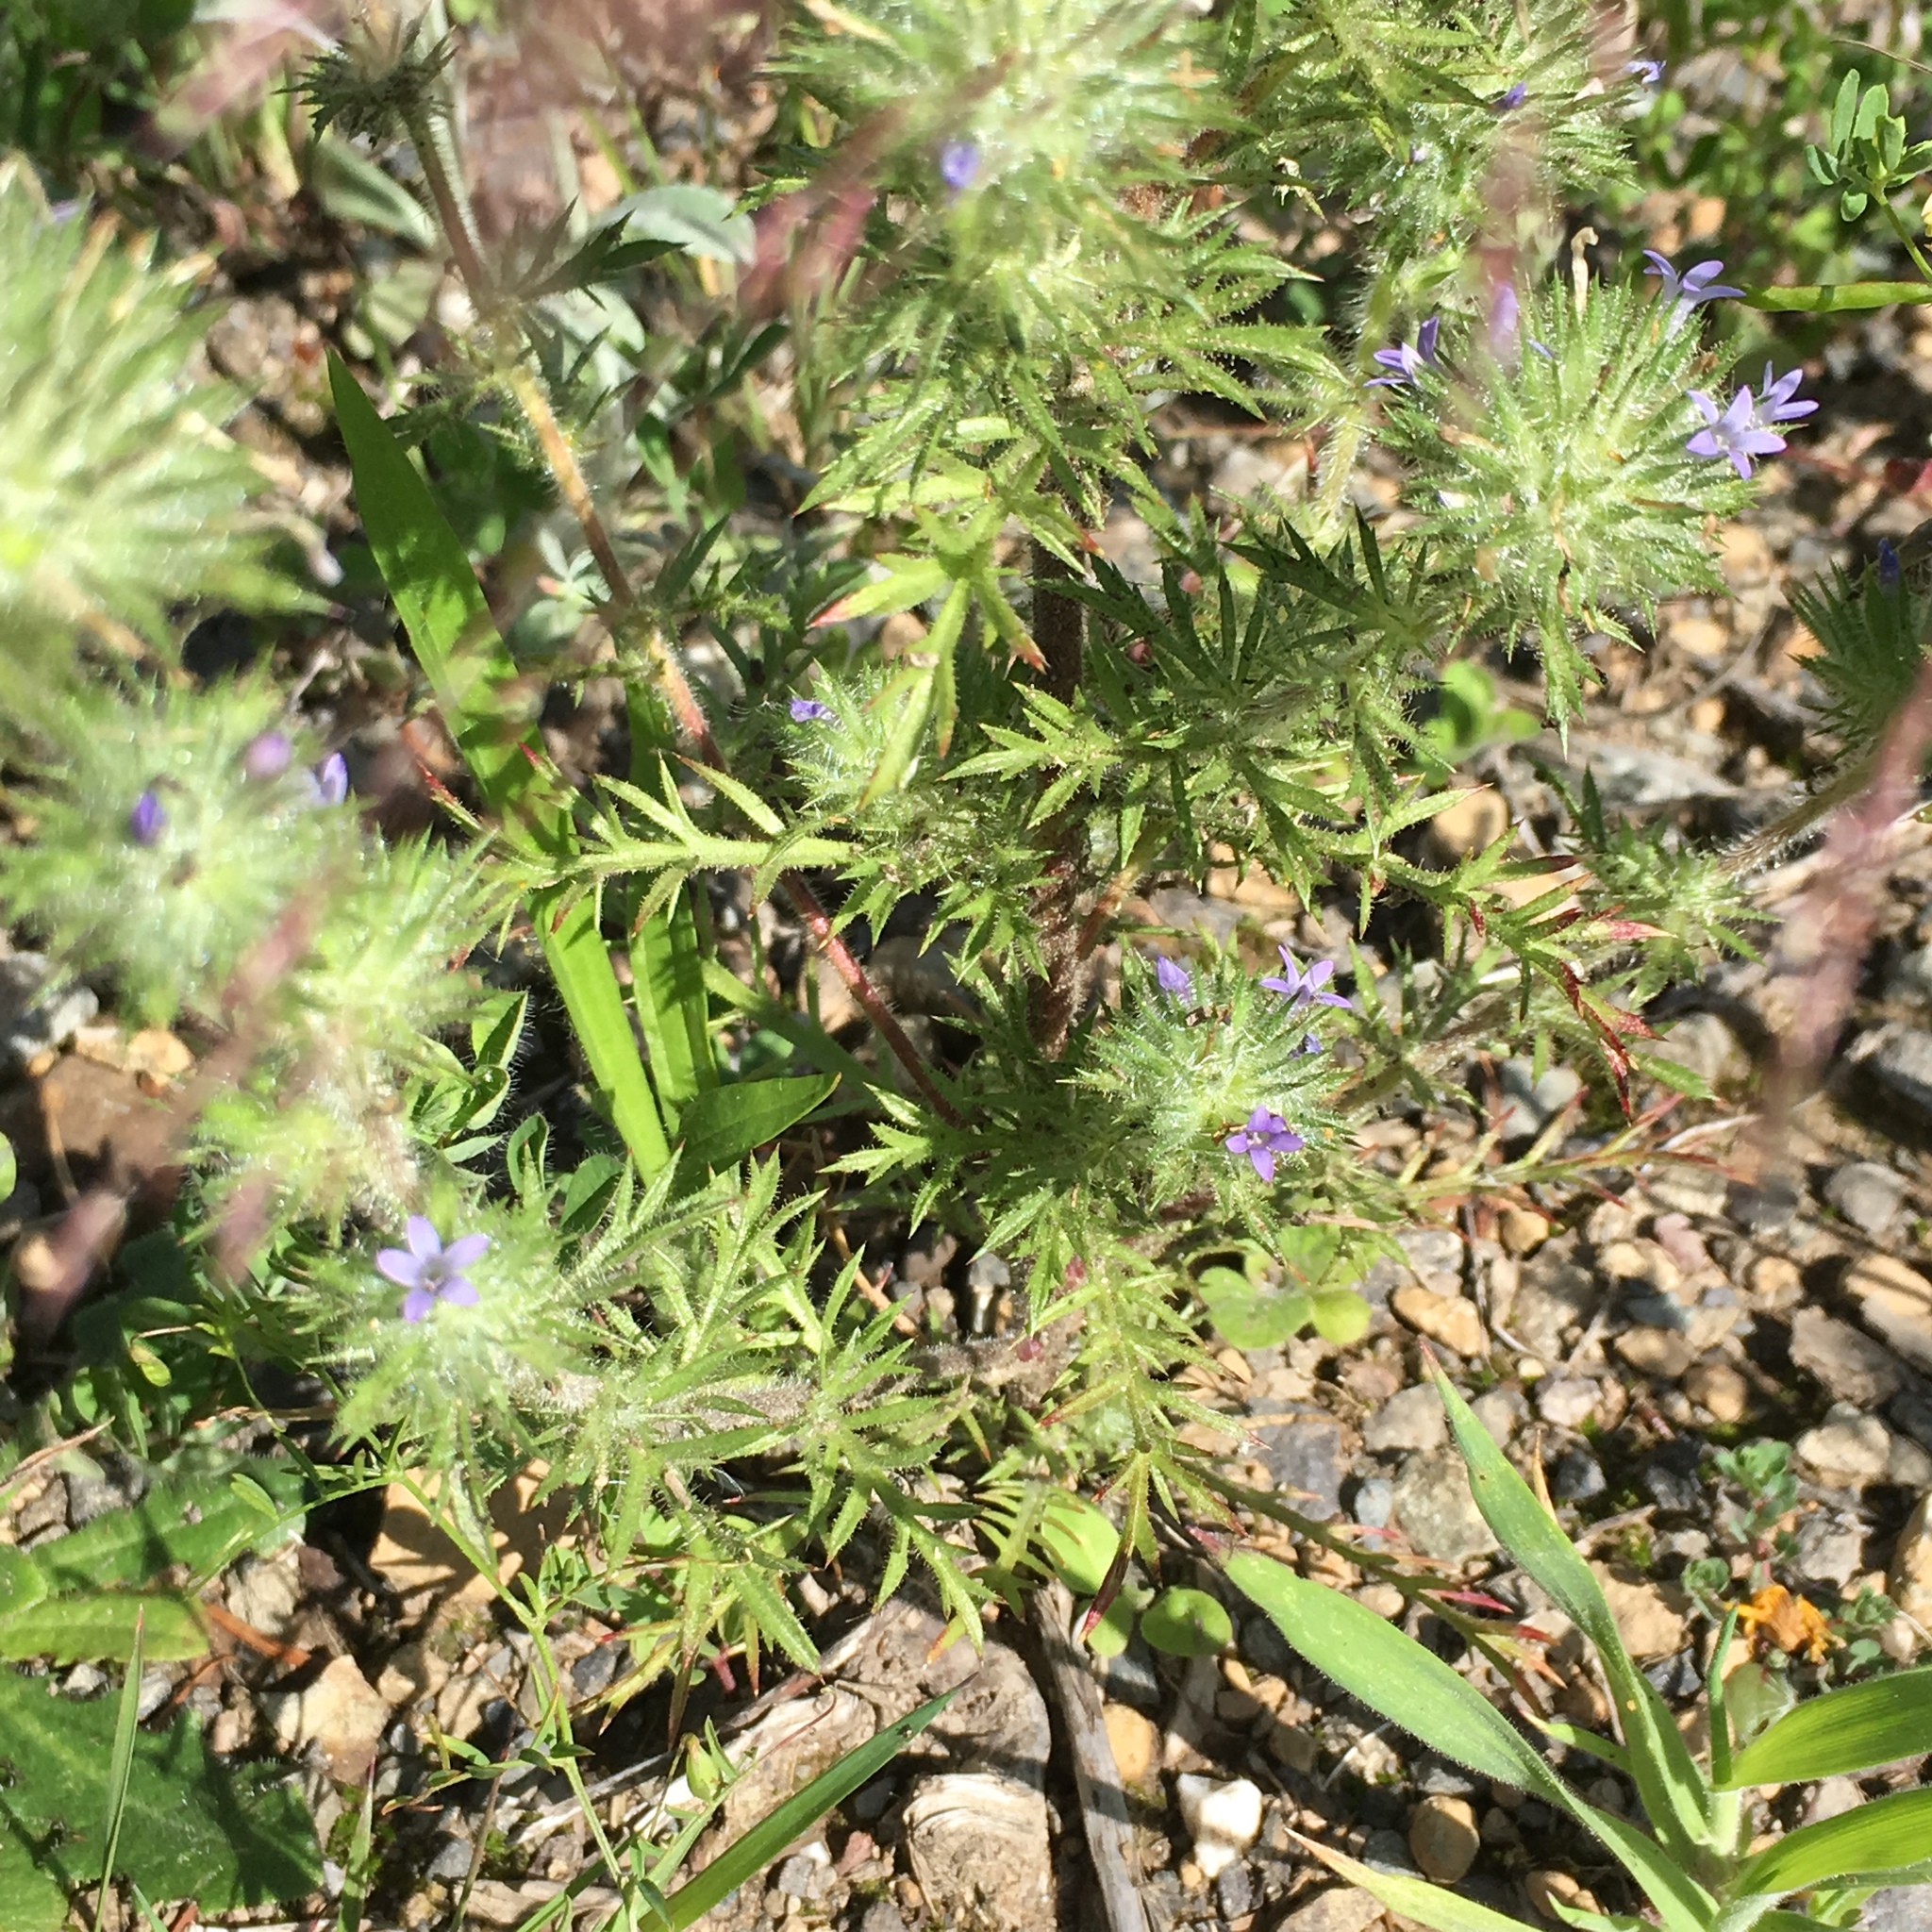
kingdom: Plantae
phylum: Tracheophyta
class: Magnoliopsida
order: Ericales
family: Polemoniaceae
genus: Navarretia
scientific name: Navarretia squarrosa
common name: Skunkweed
